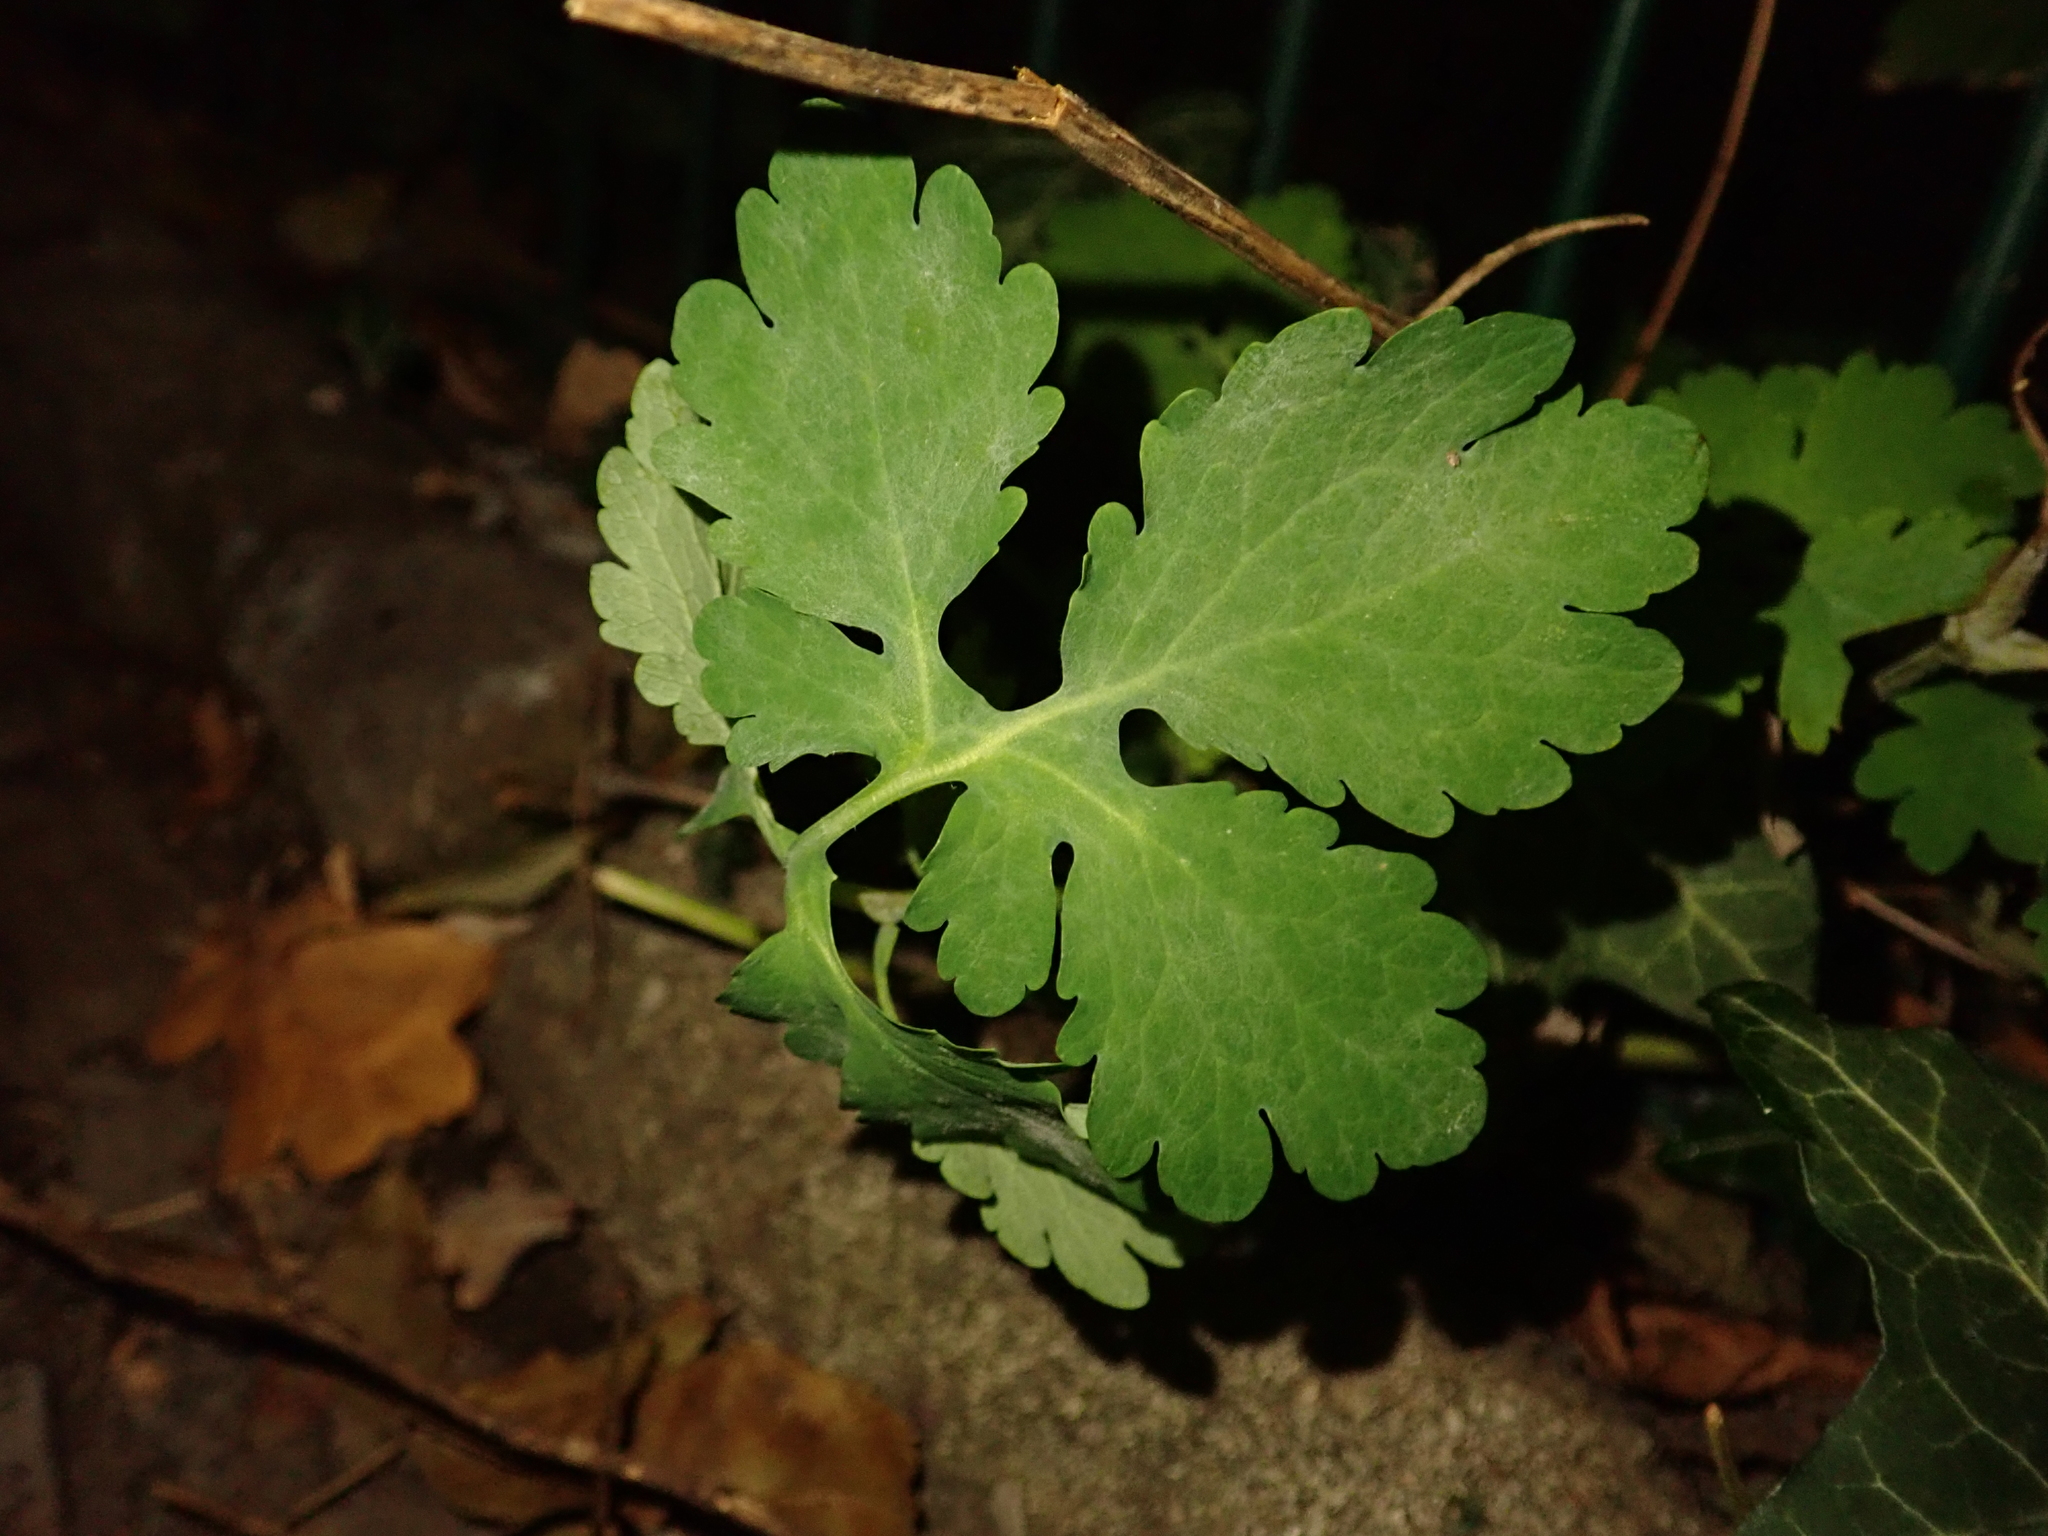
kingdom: Plantae
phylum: Tracheophyta
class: Magnoliopsida
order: Ranunculales
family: Papaveraceae
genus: Chelidonium
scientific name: Chelidonium majus
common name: Greater celandine
